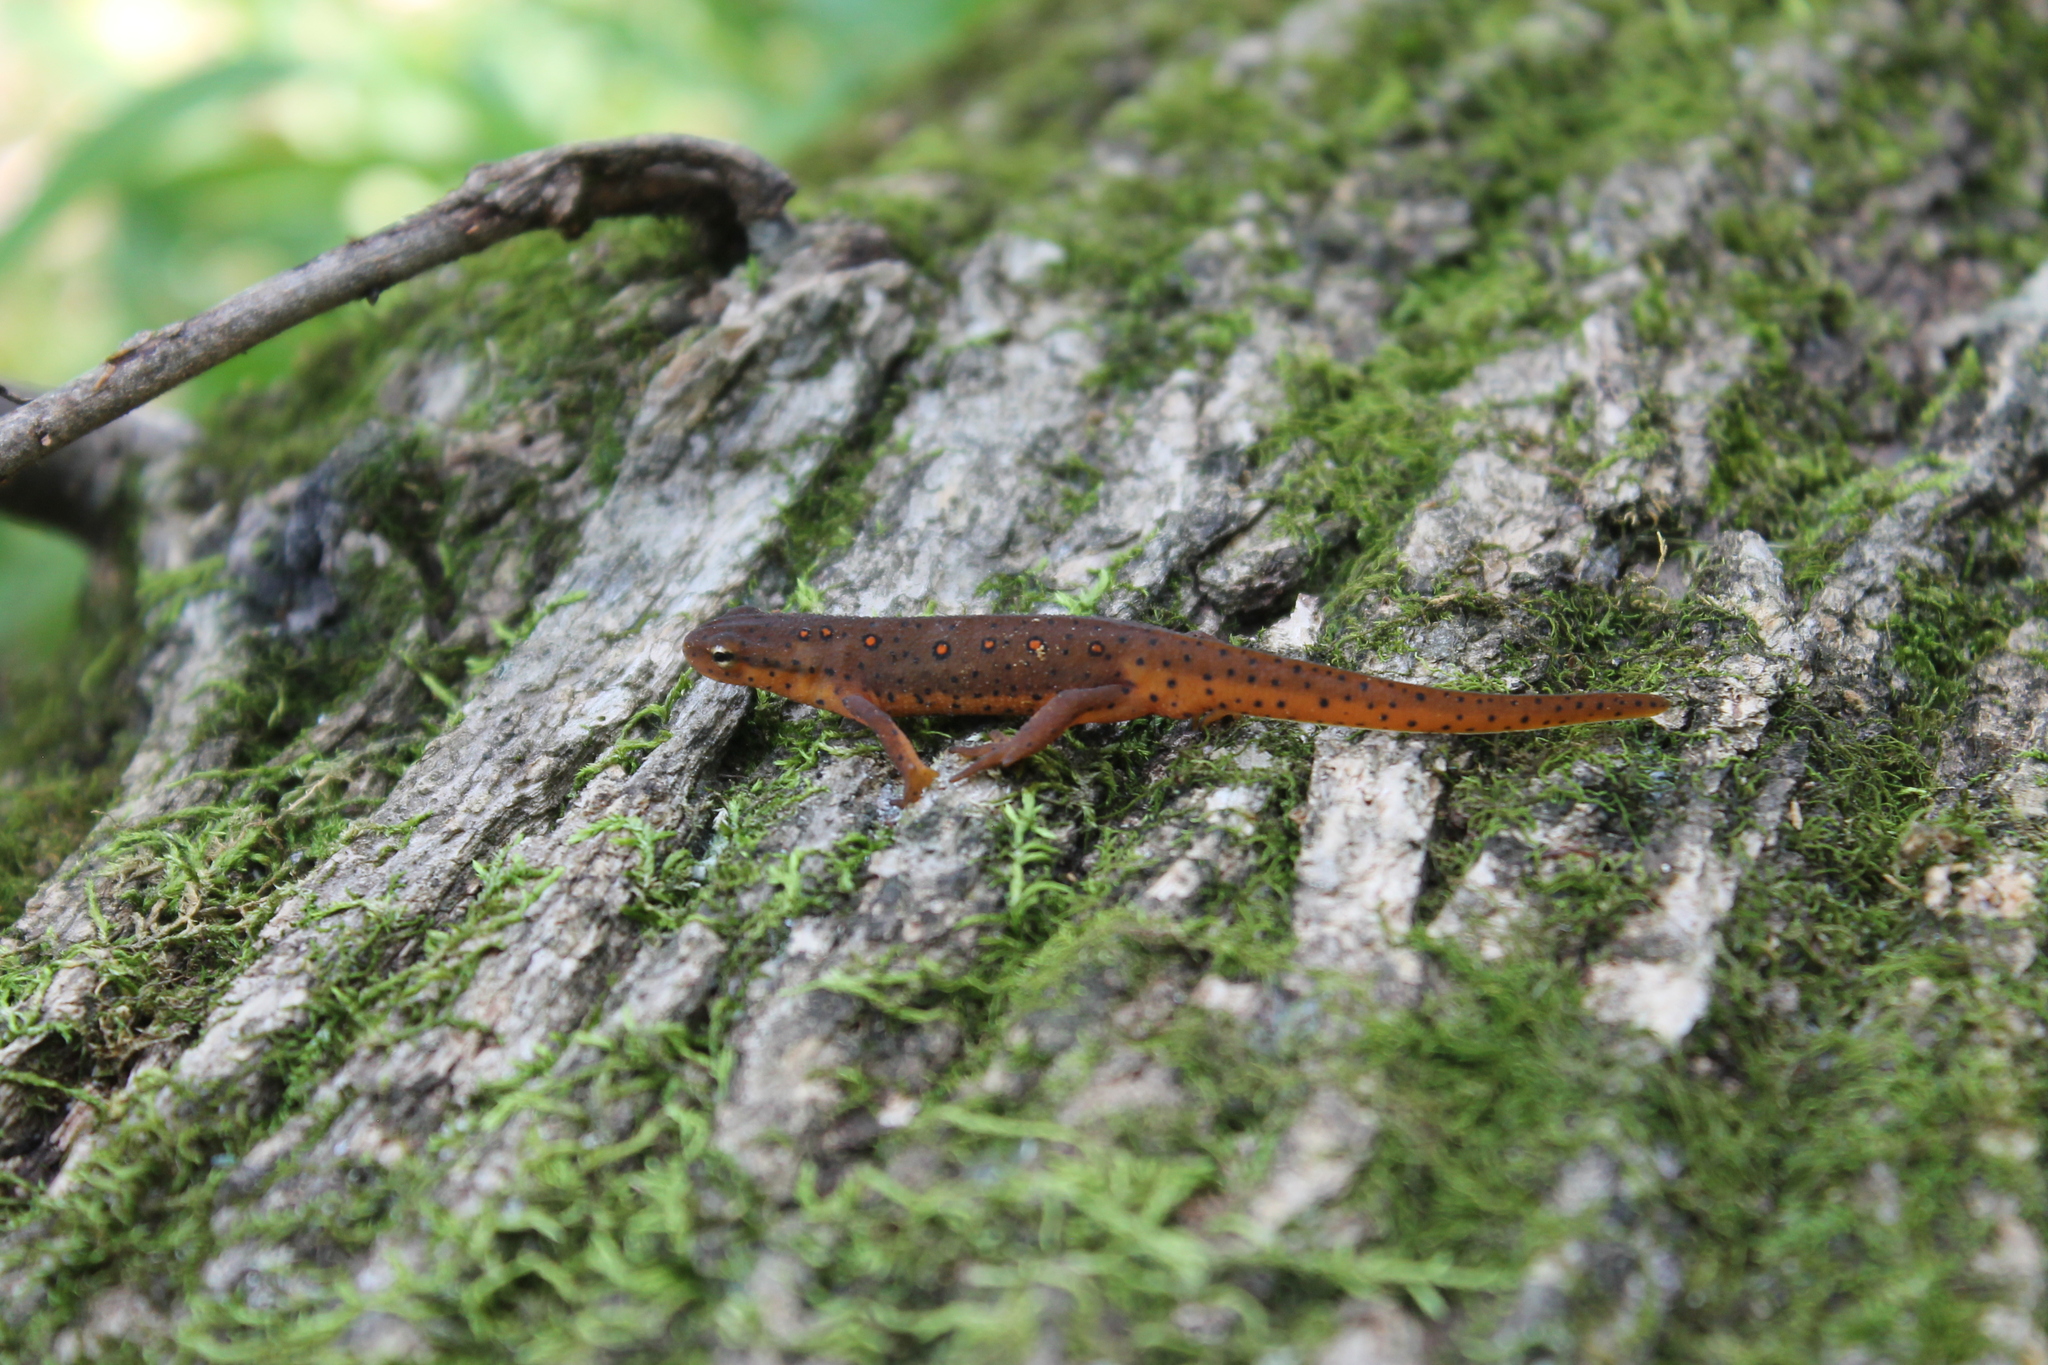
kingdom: Animalia
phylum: Chordata
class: Amphibia
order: Caudata
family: Salamandridae
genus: Notophthalmus
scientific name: Notophthalmus viridescens
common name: Eastern newt
